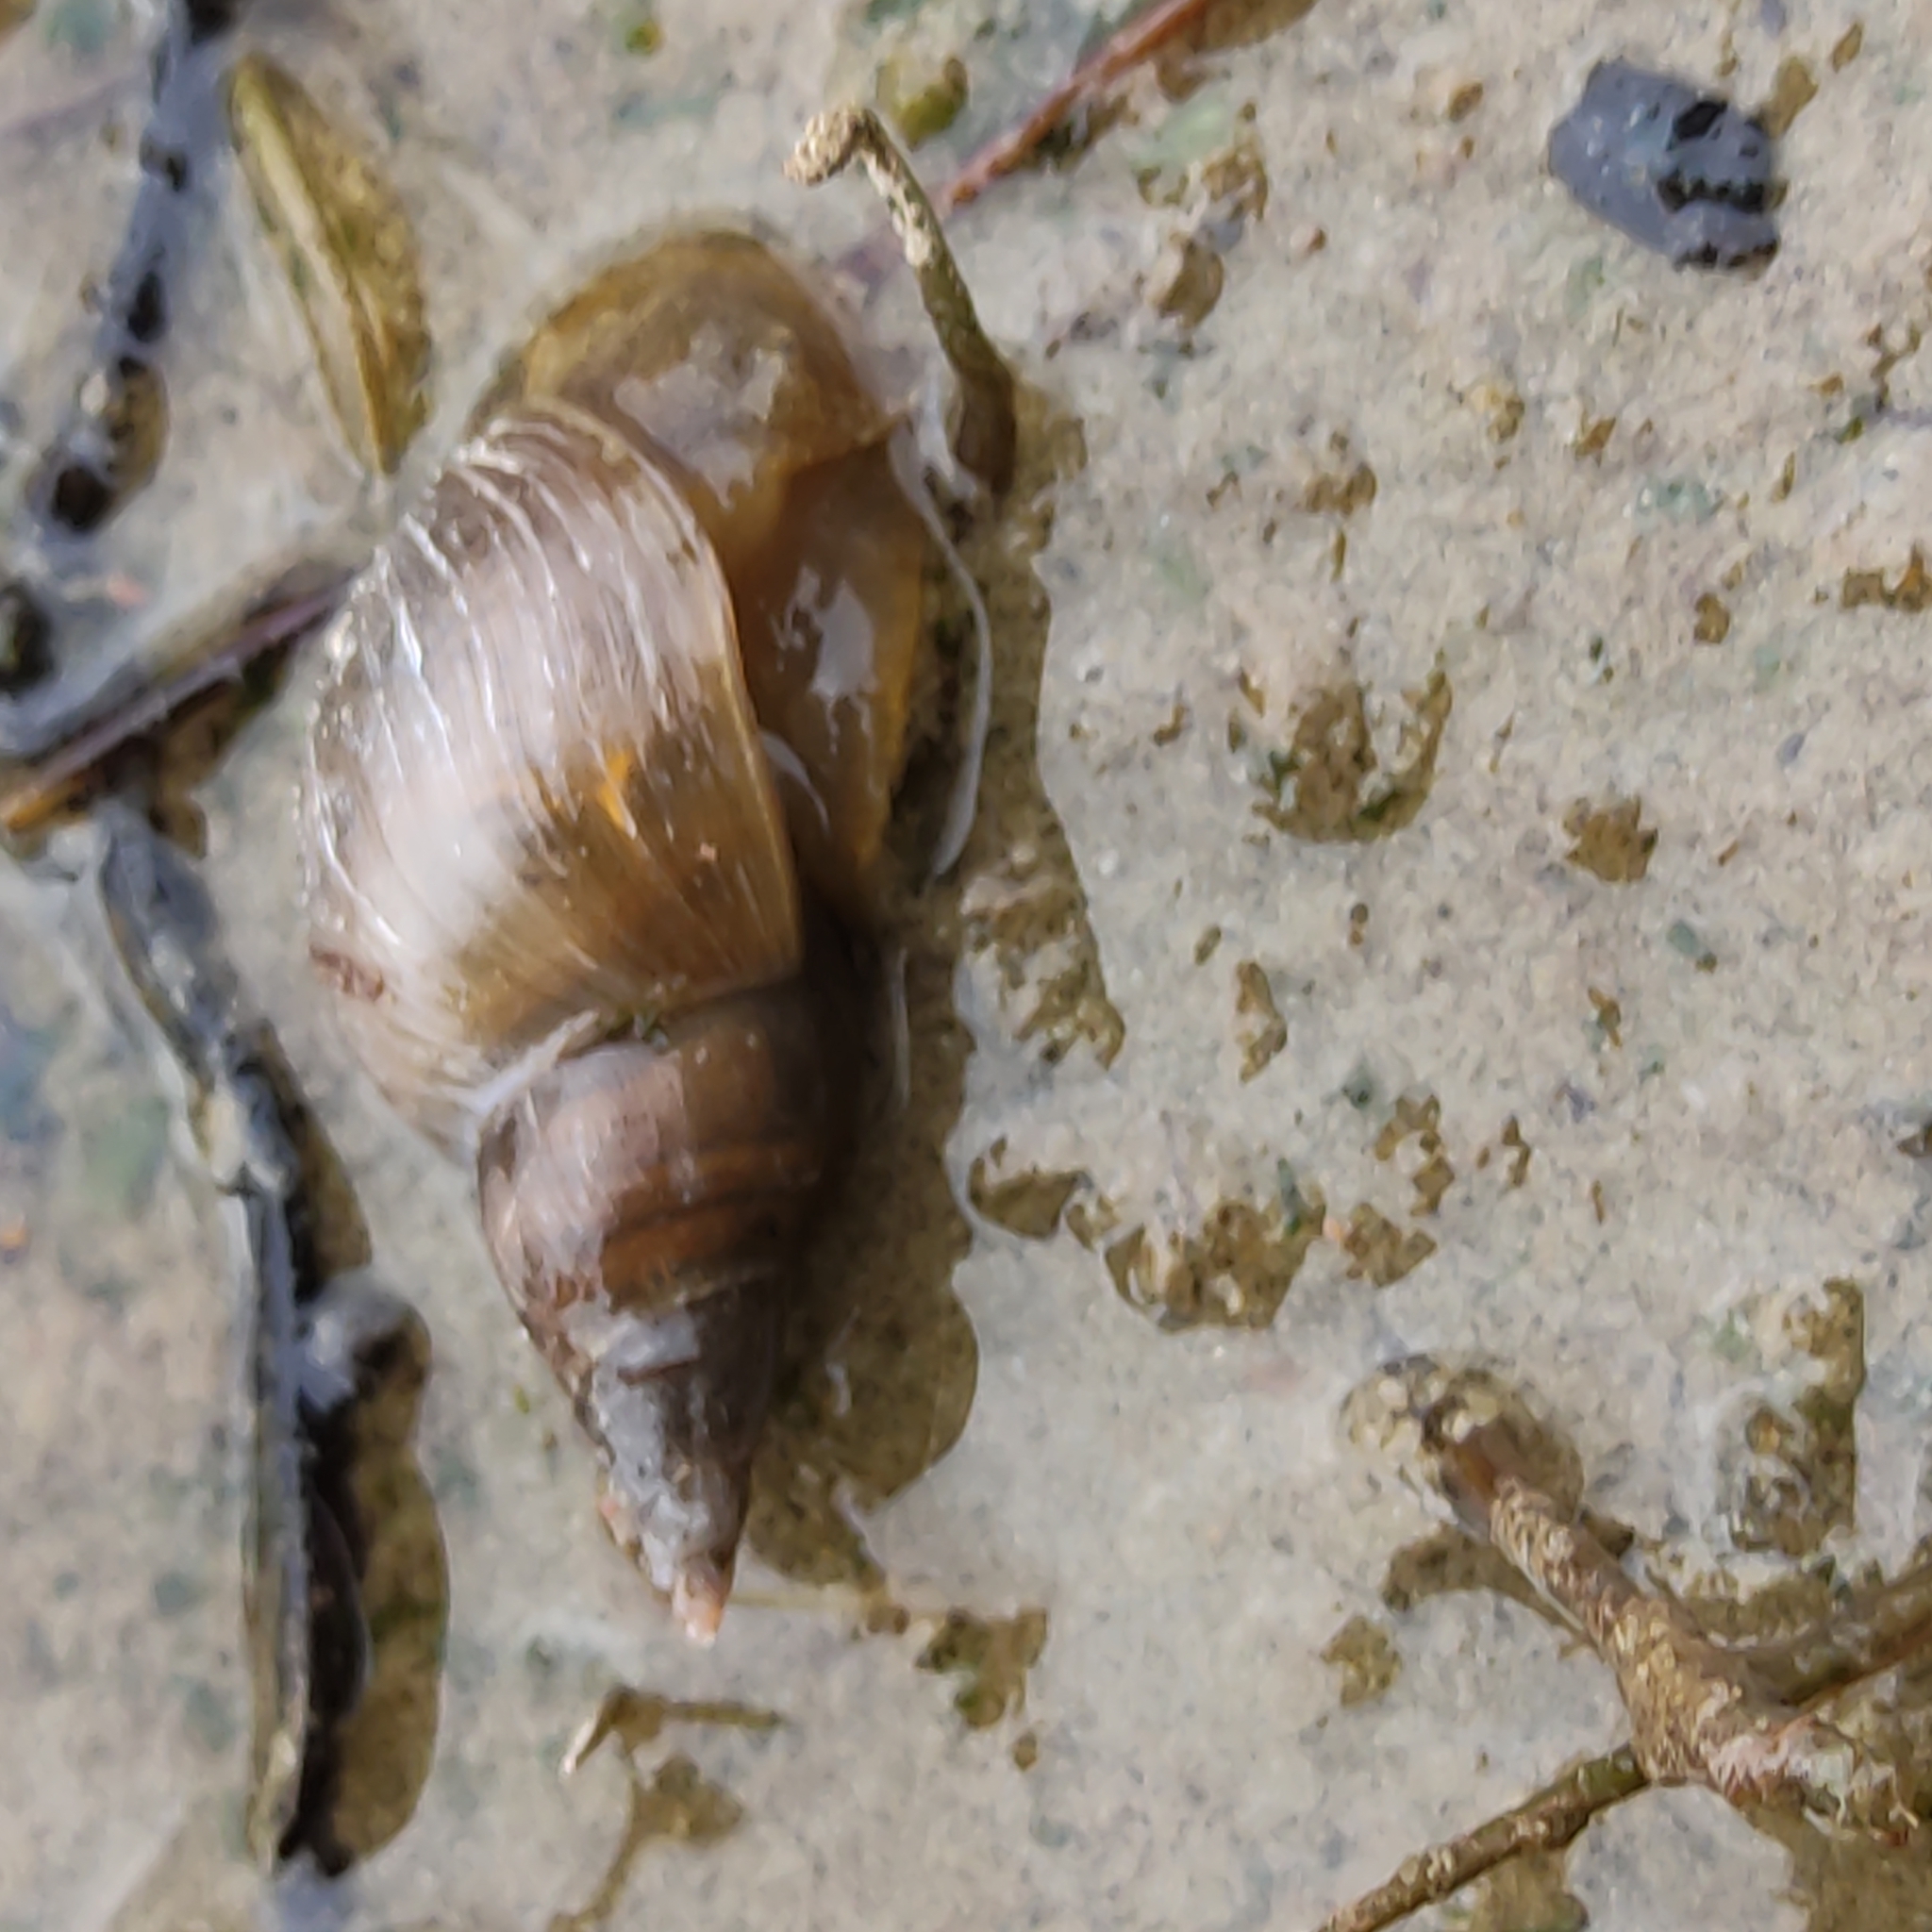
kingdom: Animalia
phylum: Mollusca
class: Gastropoda
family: Lymnaeidae
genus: Lymnaea
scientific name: Lymnaea stagnalis
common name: Great pond snail
